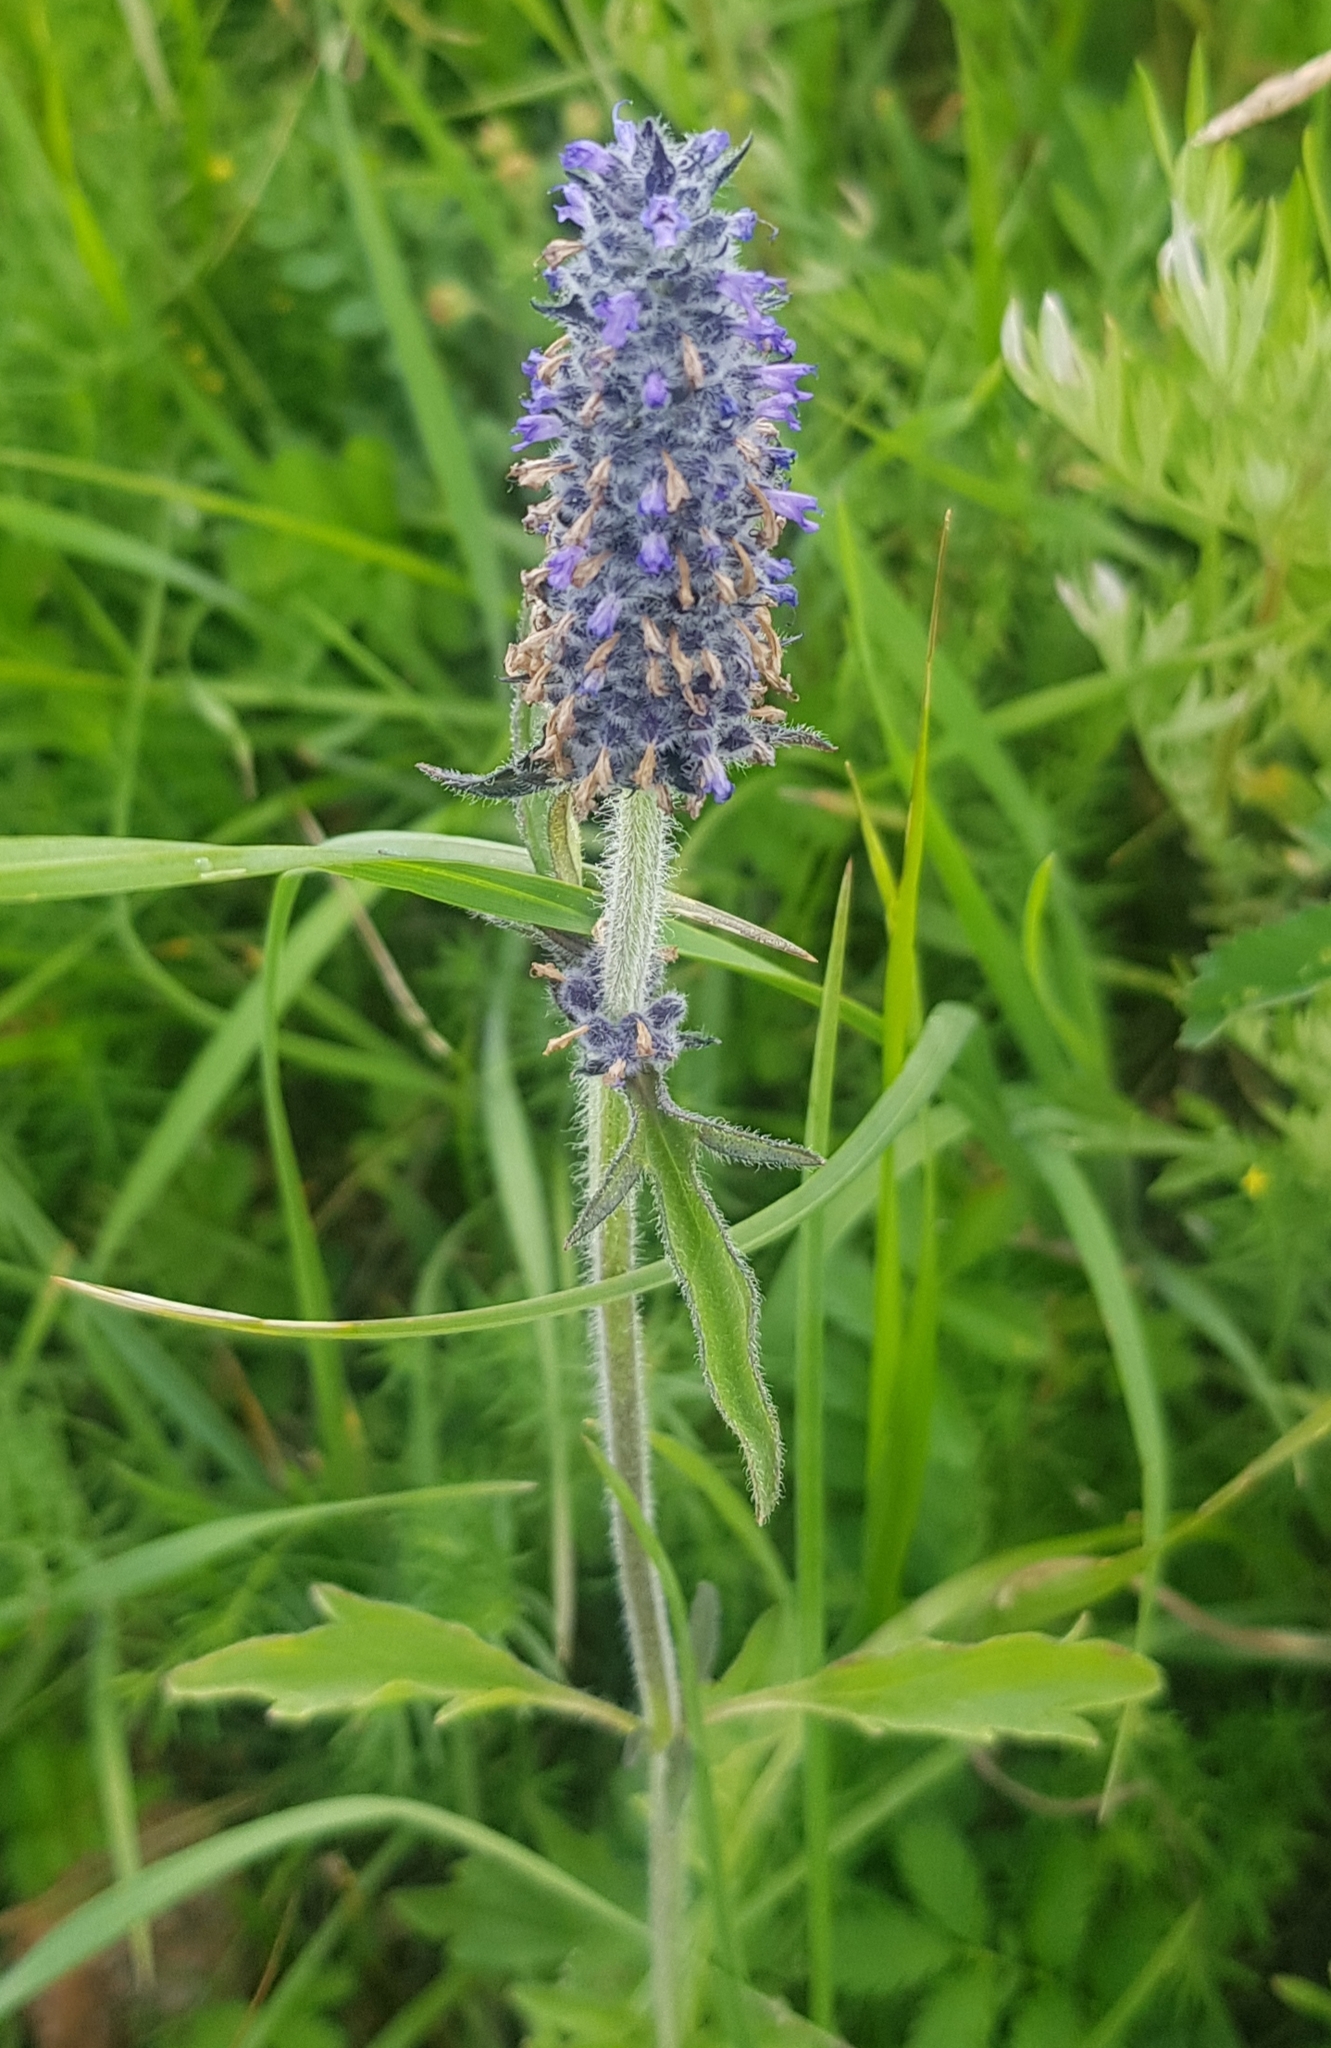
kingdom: Plantae
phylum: Tracheophyta
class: Magnoliopsida
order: Lamiales
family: Lamiaceae
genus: Nepeta
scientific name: Nepeta multifida
